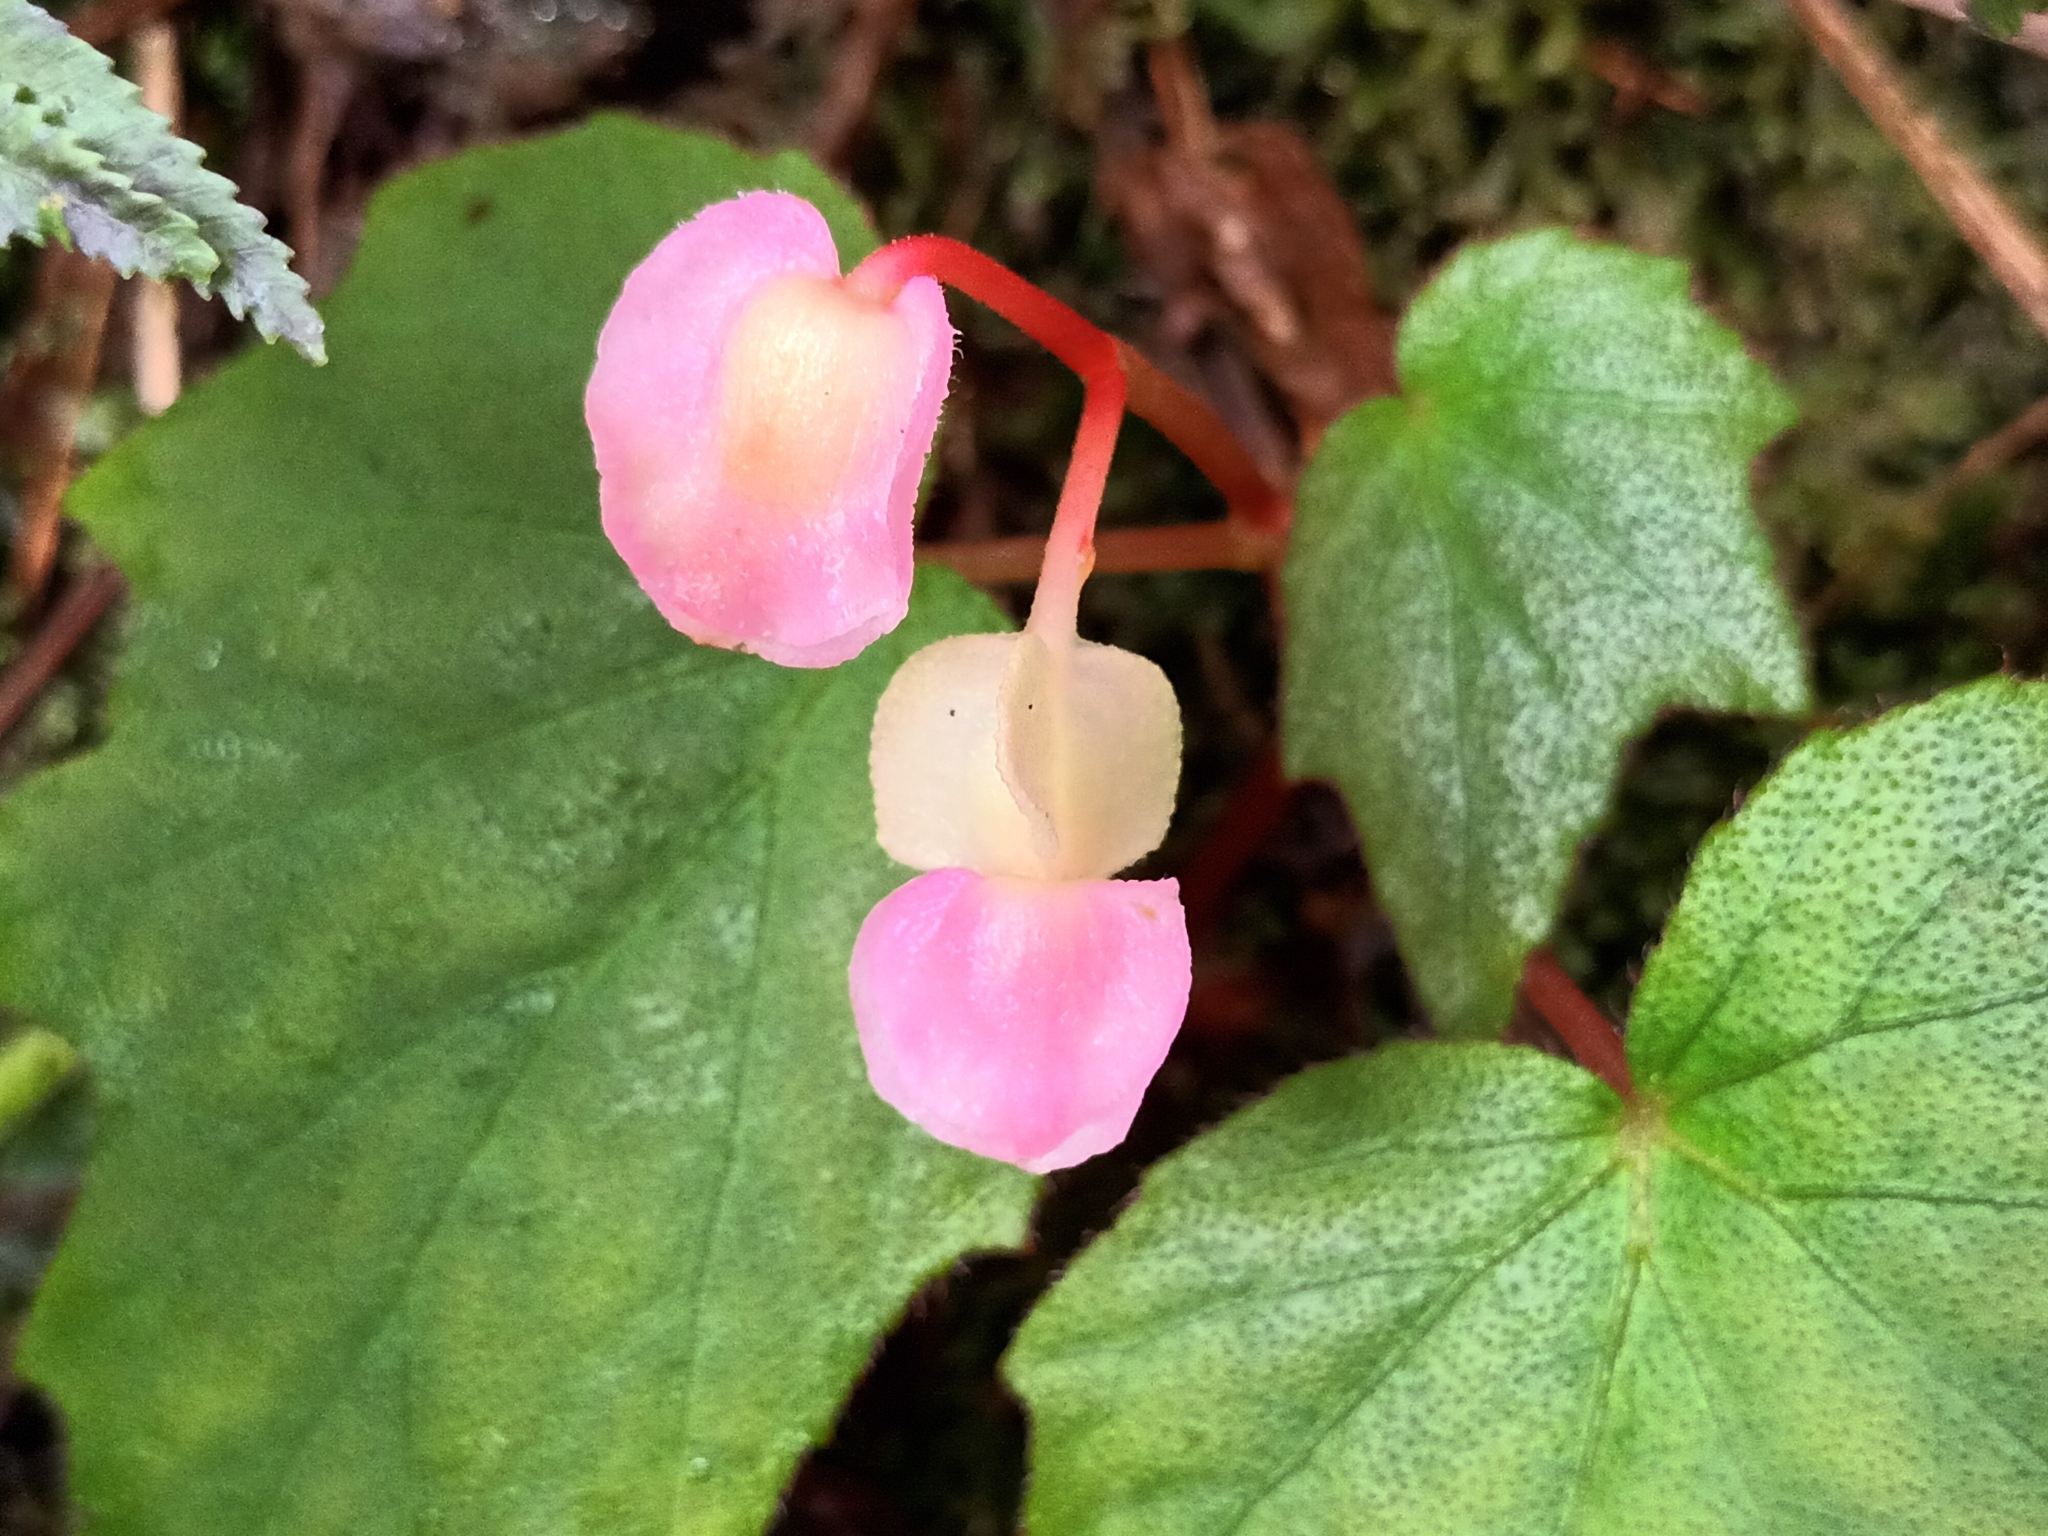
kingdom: Plantae
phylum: Tracheophyta
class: Magnoliopsida
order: Cucurbitales
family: Begoniaceae
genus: Begonia
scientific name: Begonia palmata
